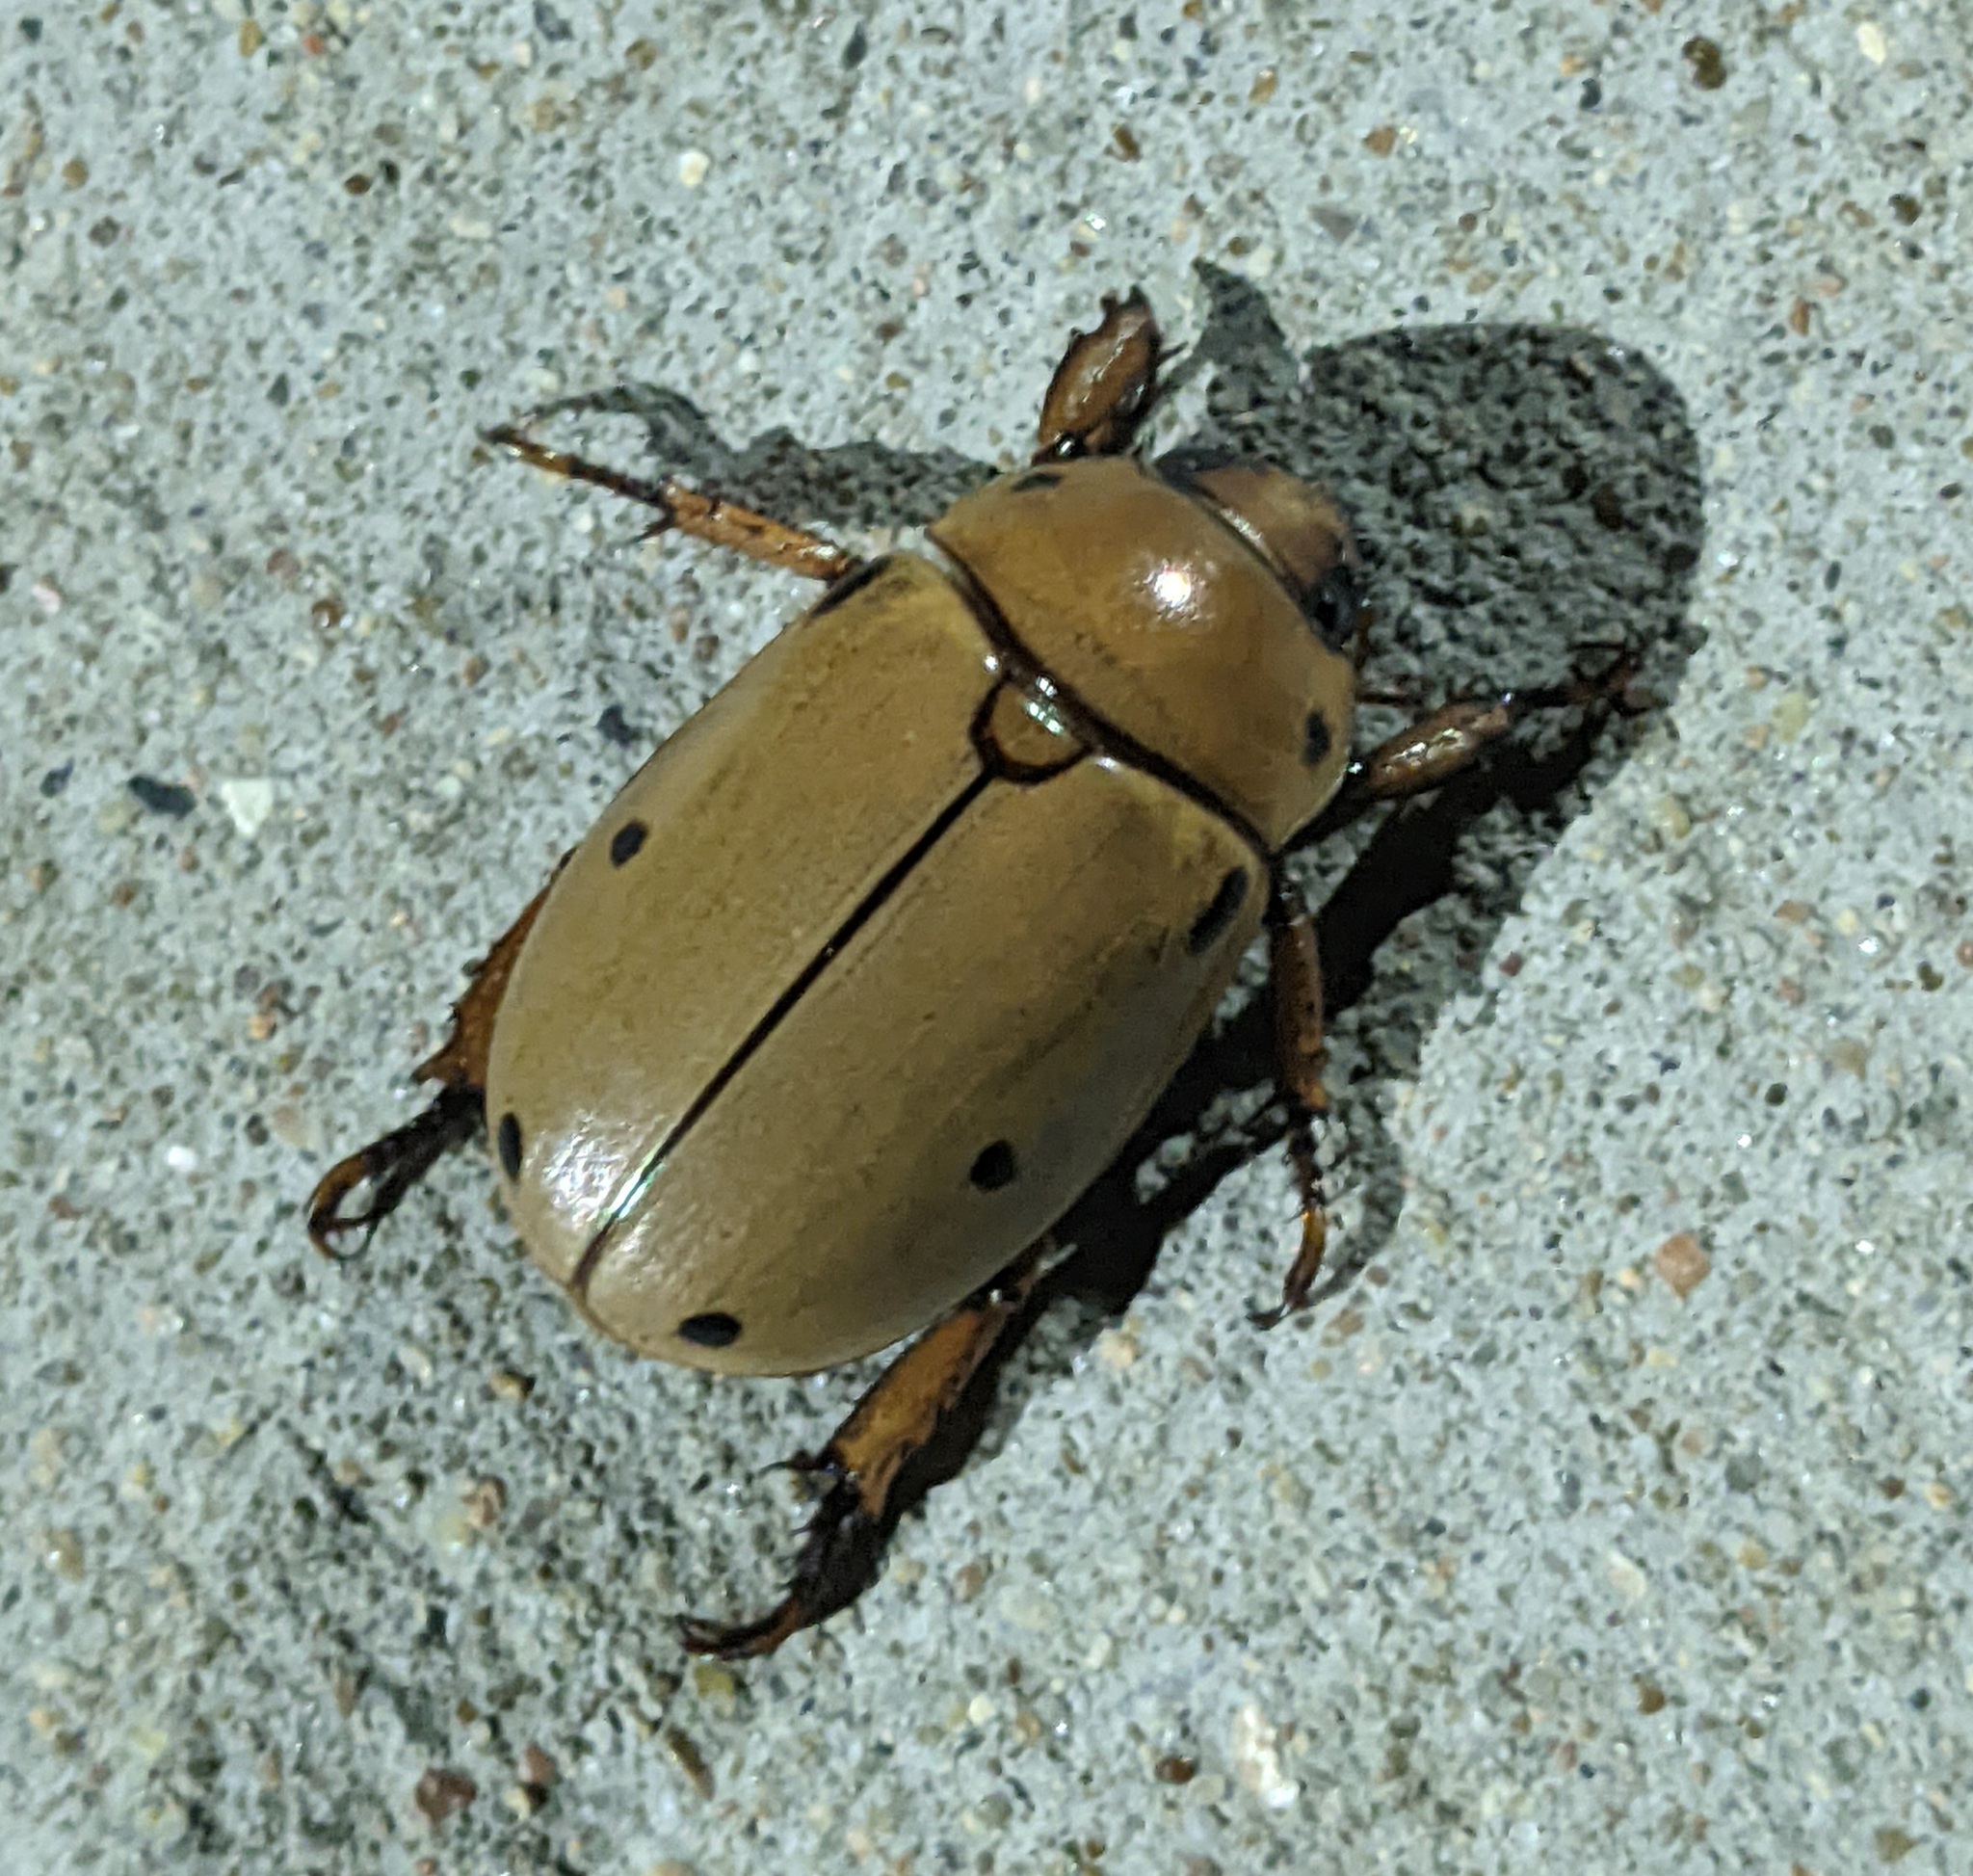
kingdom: Animalia
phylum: Arthropoda
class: Insecta
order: Coleoptera
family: Scarabaeidae
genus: Pelidnota
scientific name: Pelidnota punctata
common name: Grapevine beetle
